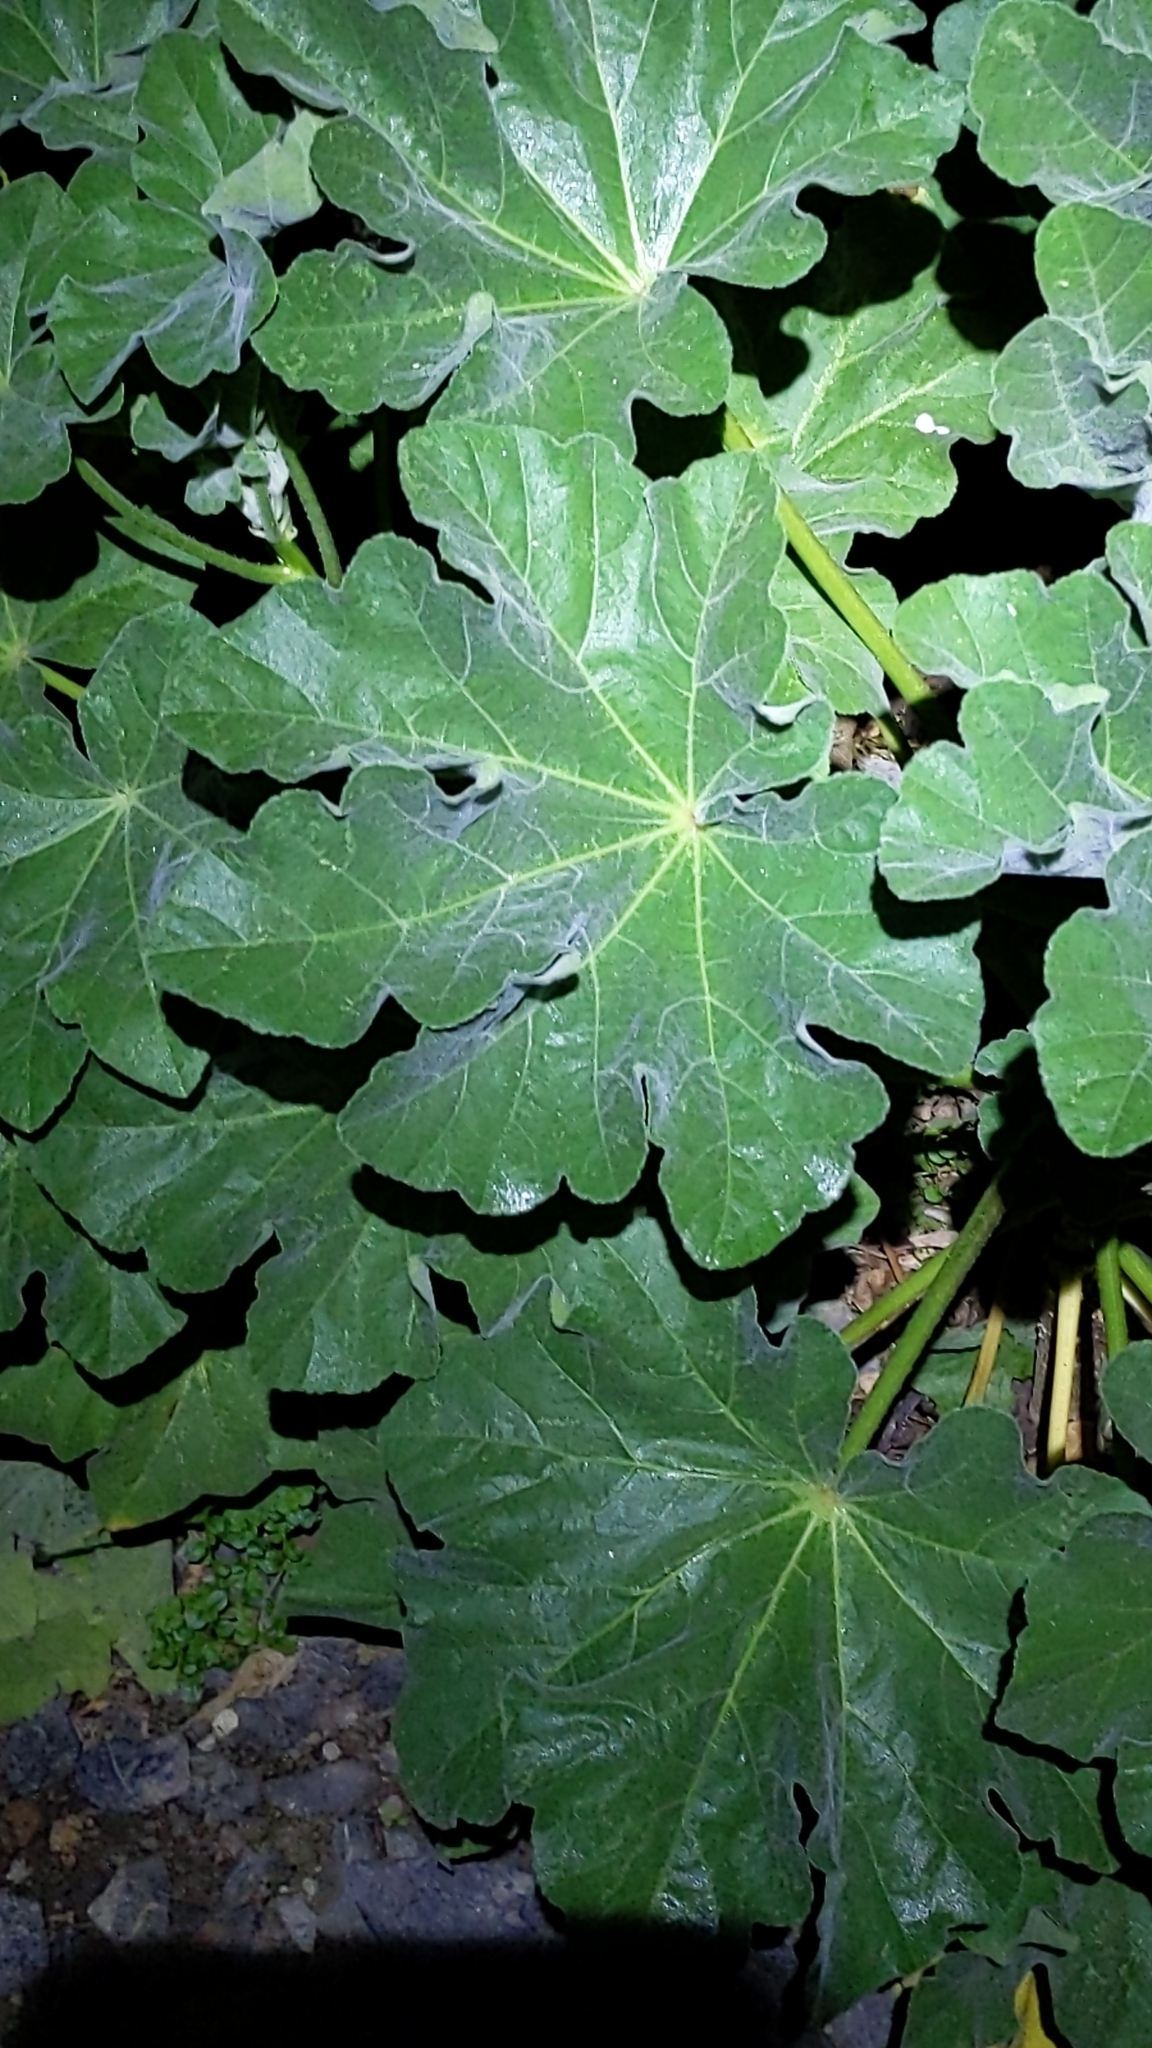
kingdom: Plantae
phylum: Tracheophyta
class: Magnoliopsida
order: Malvales
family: Malvaceae
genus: Malva
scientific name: Malva arborea
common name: Tree mallow
